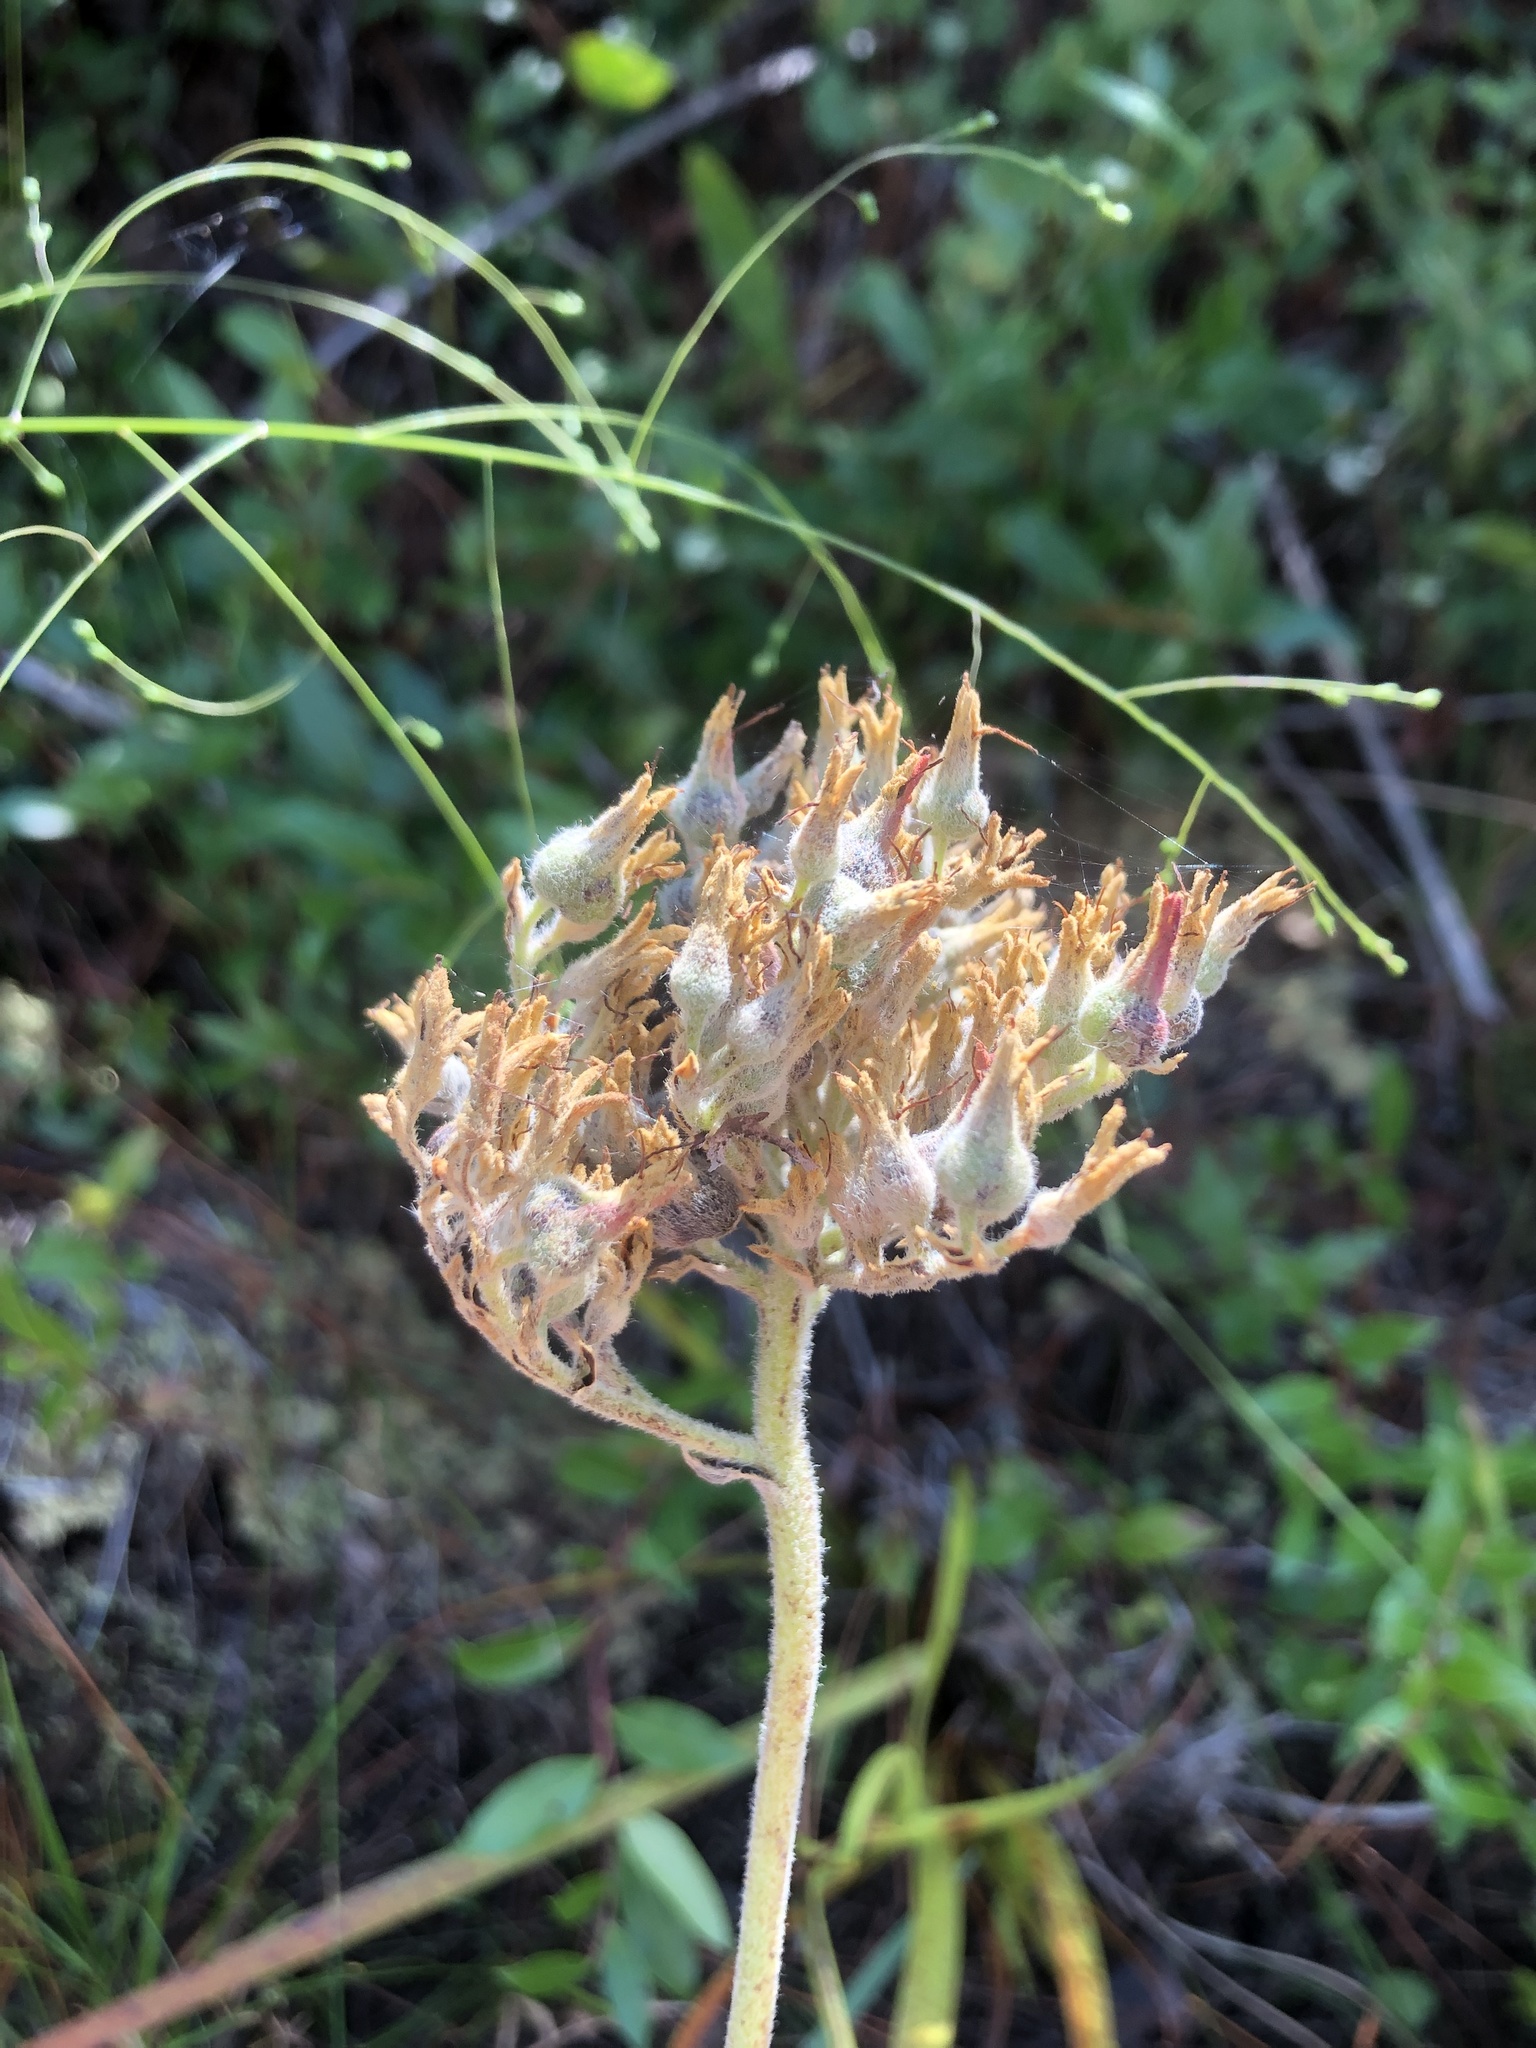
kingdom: Plantae
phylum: Tracheophyta
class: Liliopsida
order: Commelinales
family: Haemodoraceae
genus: Lachnanthes
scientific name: Lachnanthes caroliana
